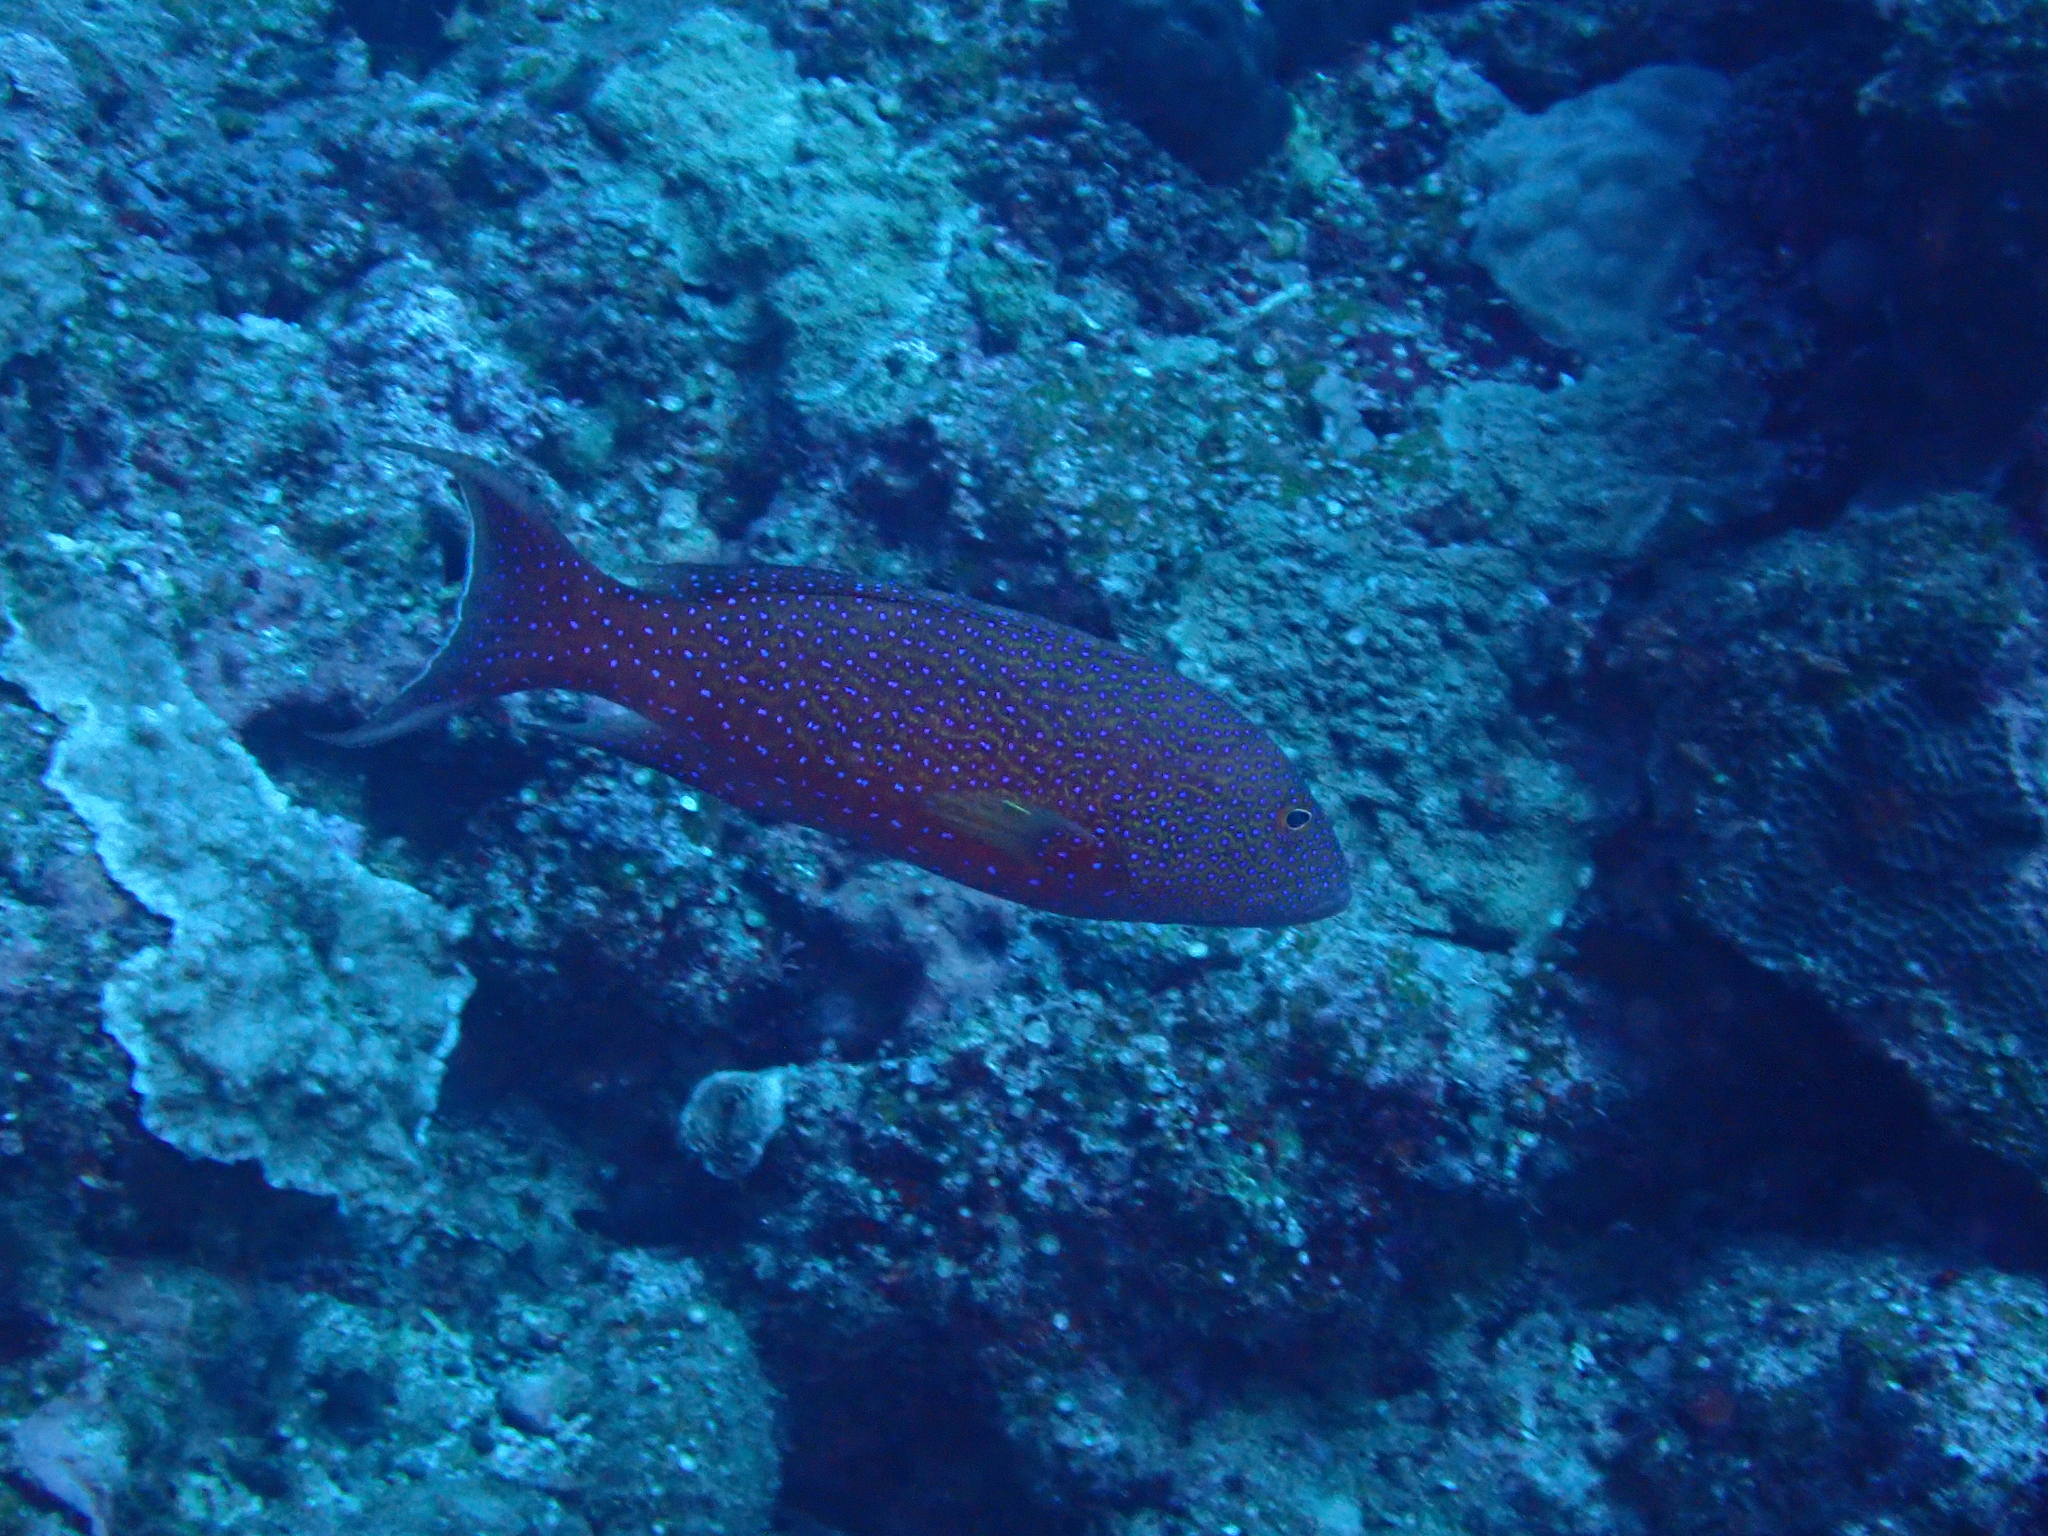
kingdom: Animalia
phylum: Chordata
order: Perciformes
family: Serranidae
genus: Variola
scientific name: Variola albimarginata
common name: Lunar-tailed grouper
